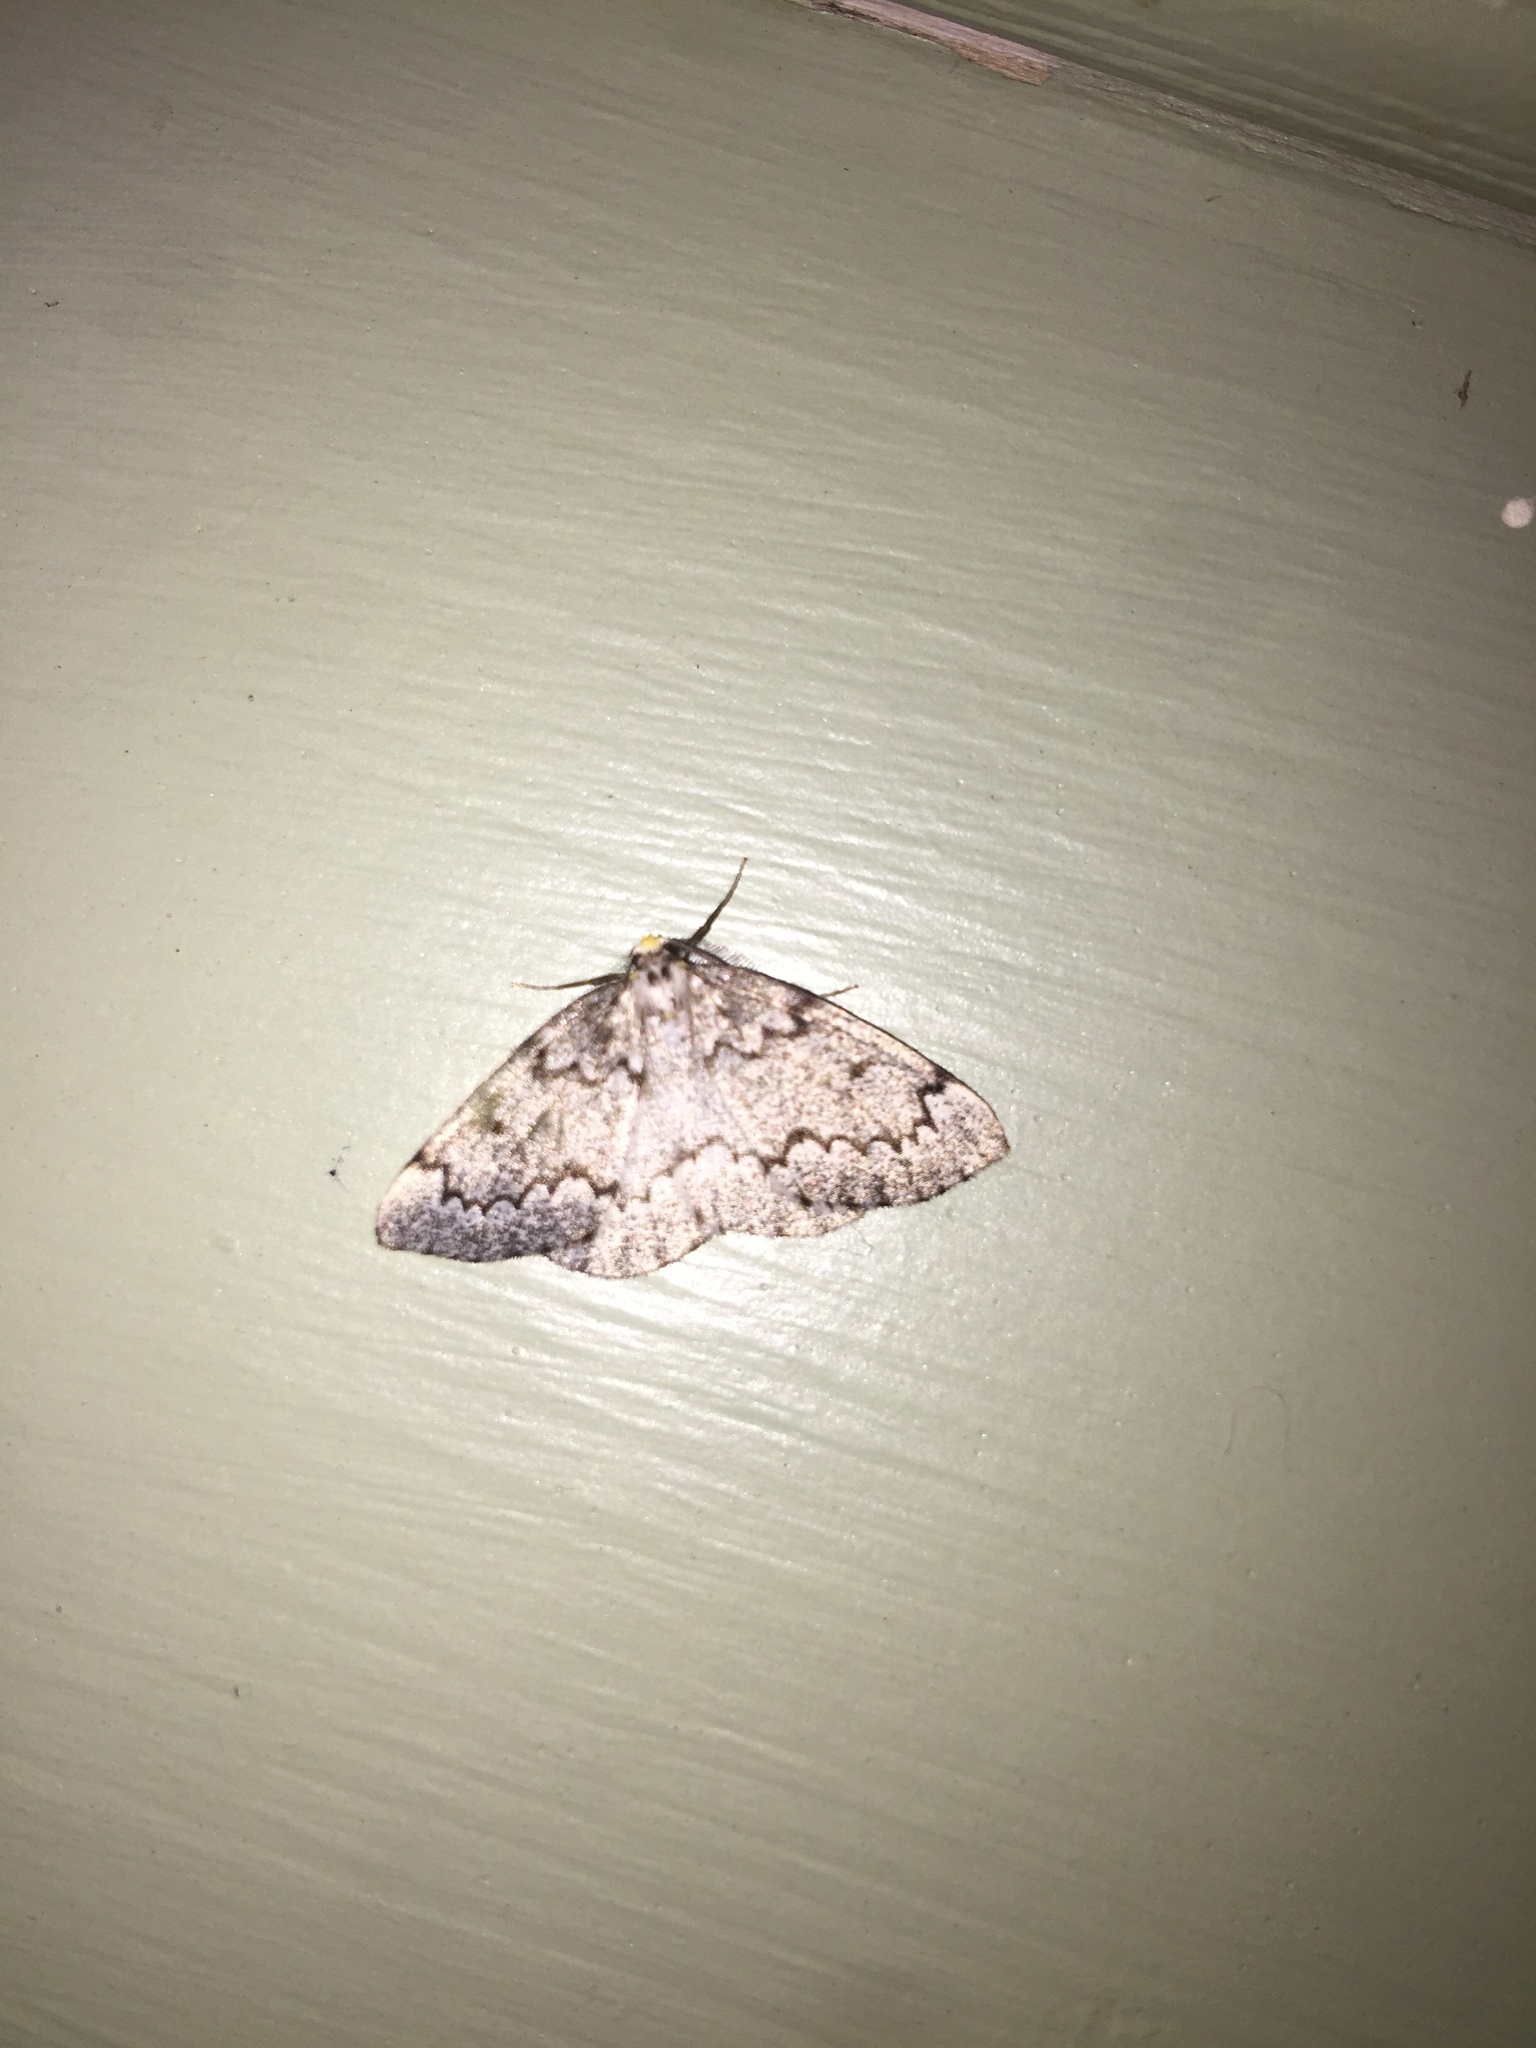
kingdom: Animalia
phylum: Arthropoda
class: Insecta
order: Lepidoptera
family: Geometridae
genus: Nepytia
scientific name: Nepytia canosaria
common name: False hemlock looper
